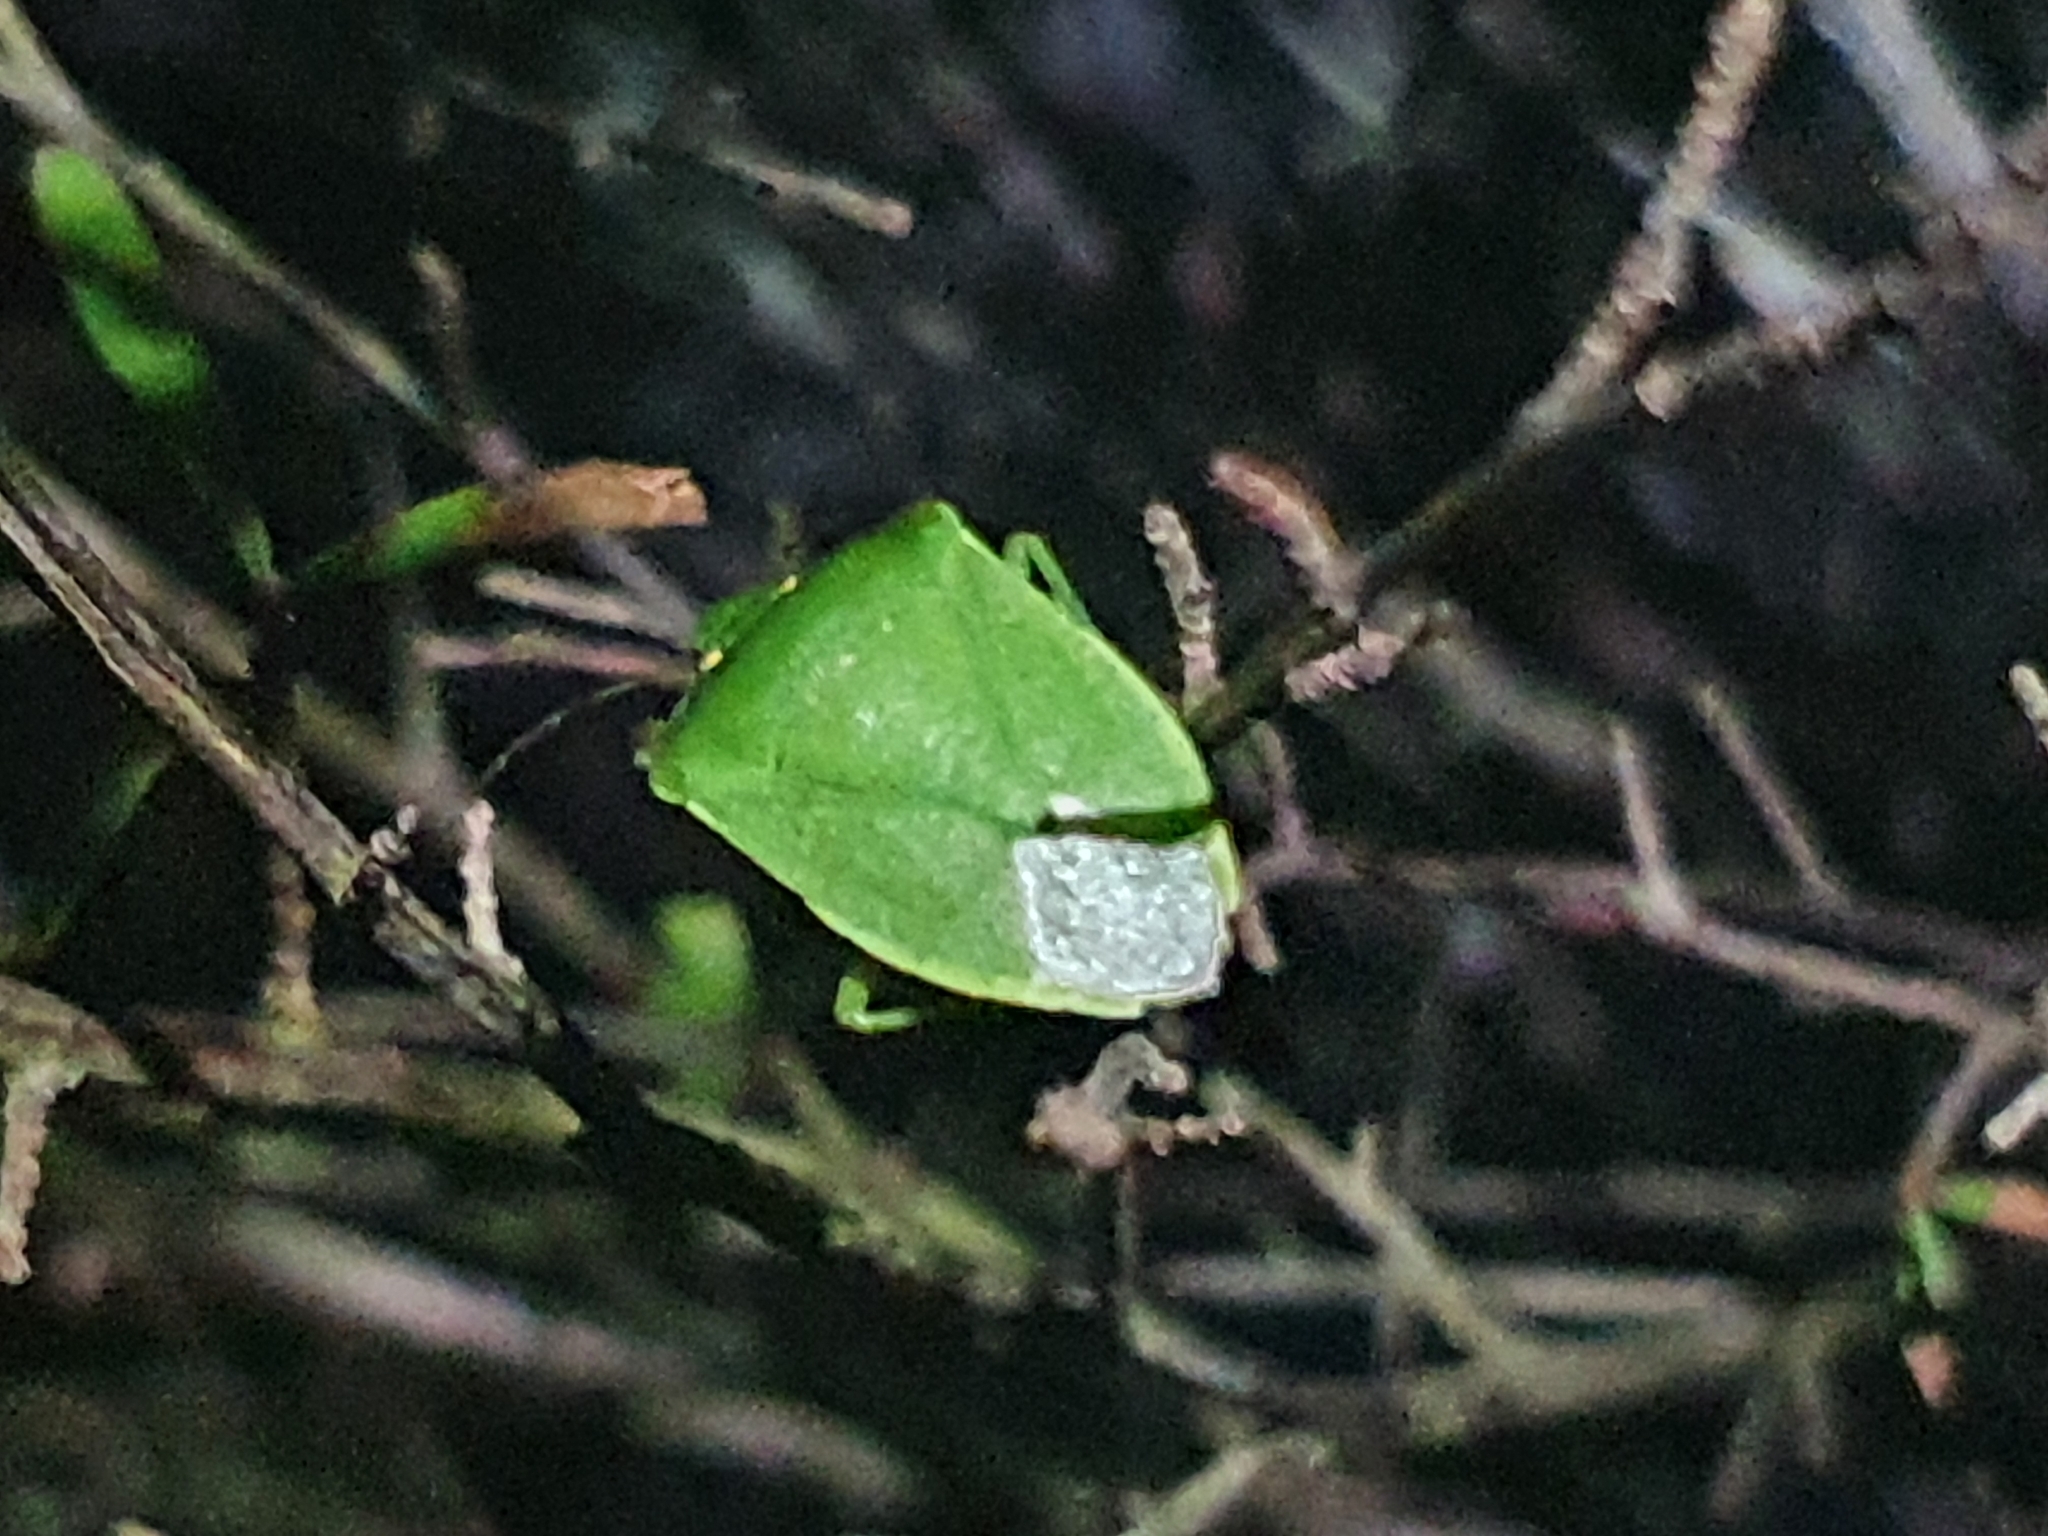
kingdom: Animalia
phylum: Arthropoda
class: Insecta
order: Hemiptera
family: Pentatomidae
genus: Nezara
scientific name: Nezara viridula
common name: Southern green stink bug
